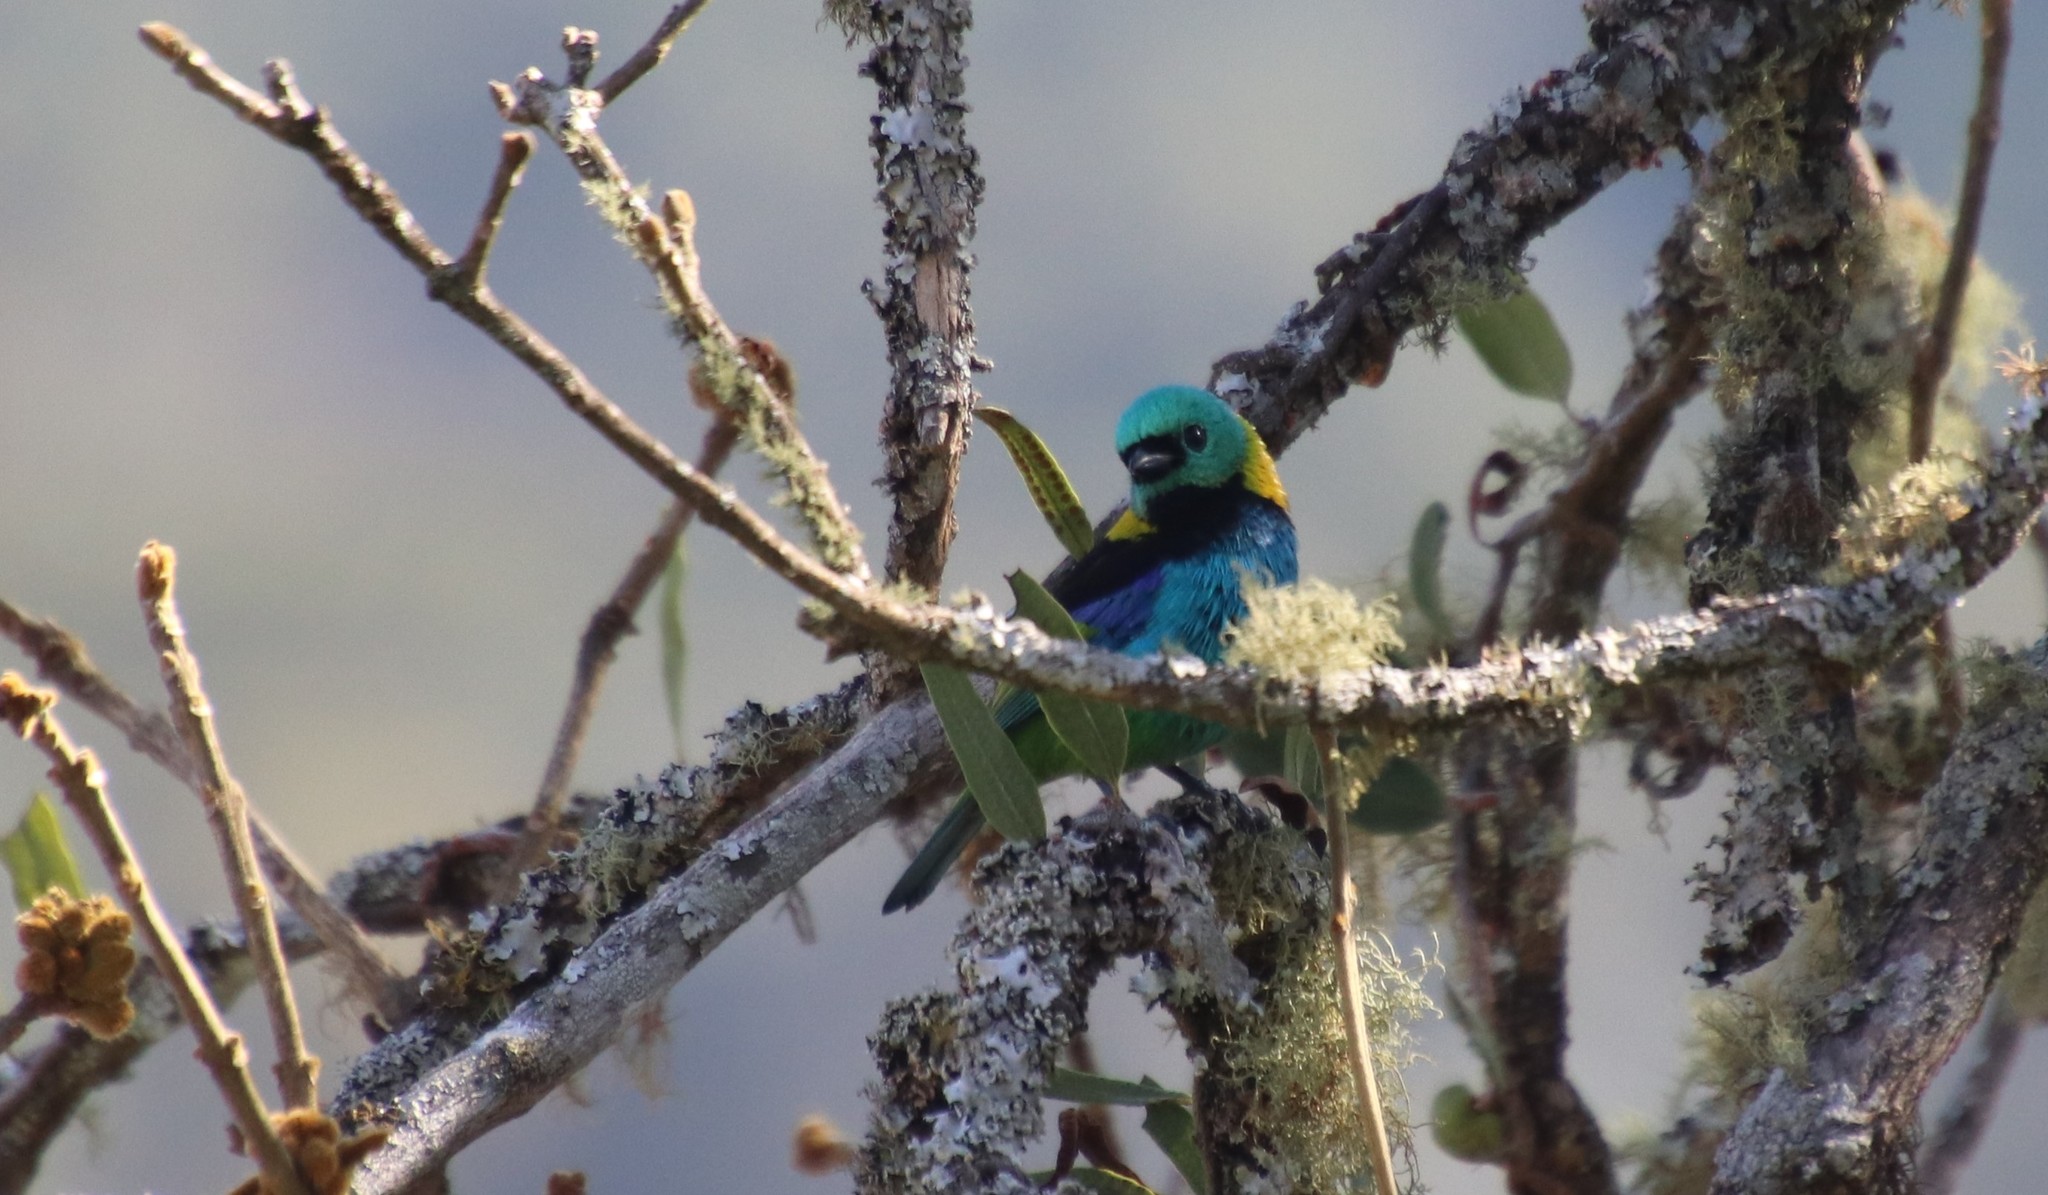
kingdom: Animalia
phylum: Chordata
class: Aves
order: Passeriformes
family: Thraupidae
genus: Tangara
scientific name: Tangara seledon
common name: Green-headed tanager
